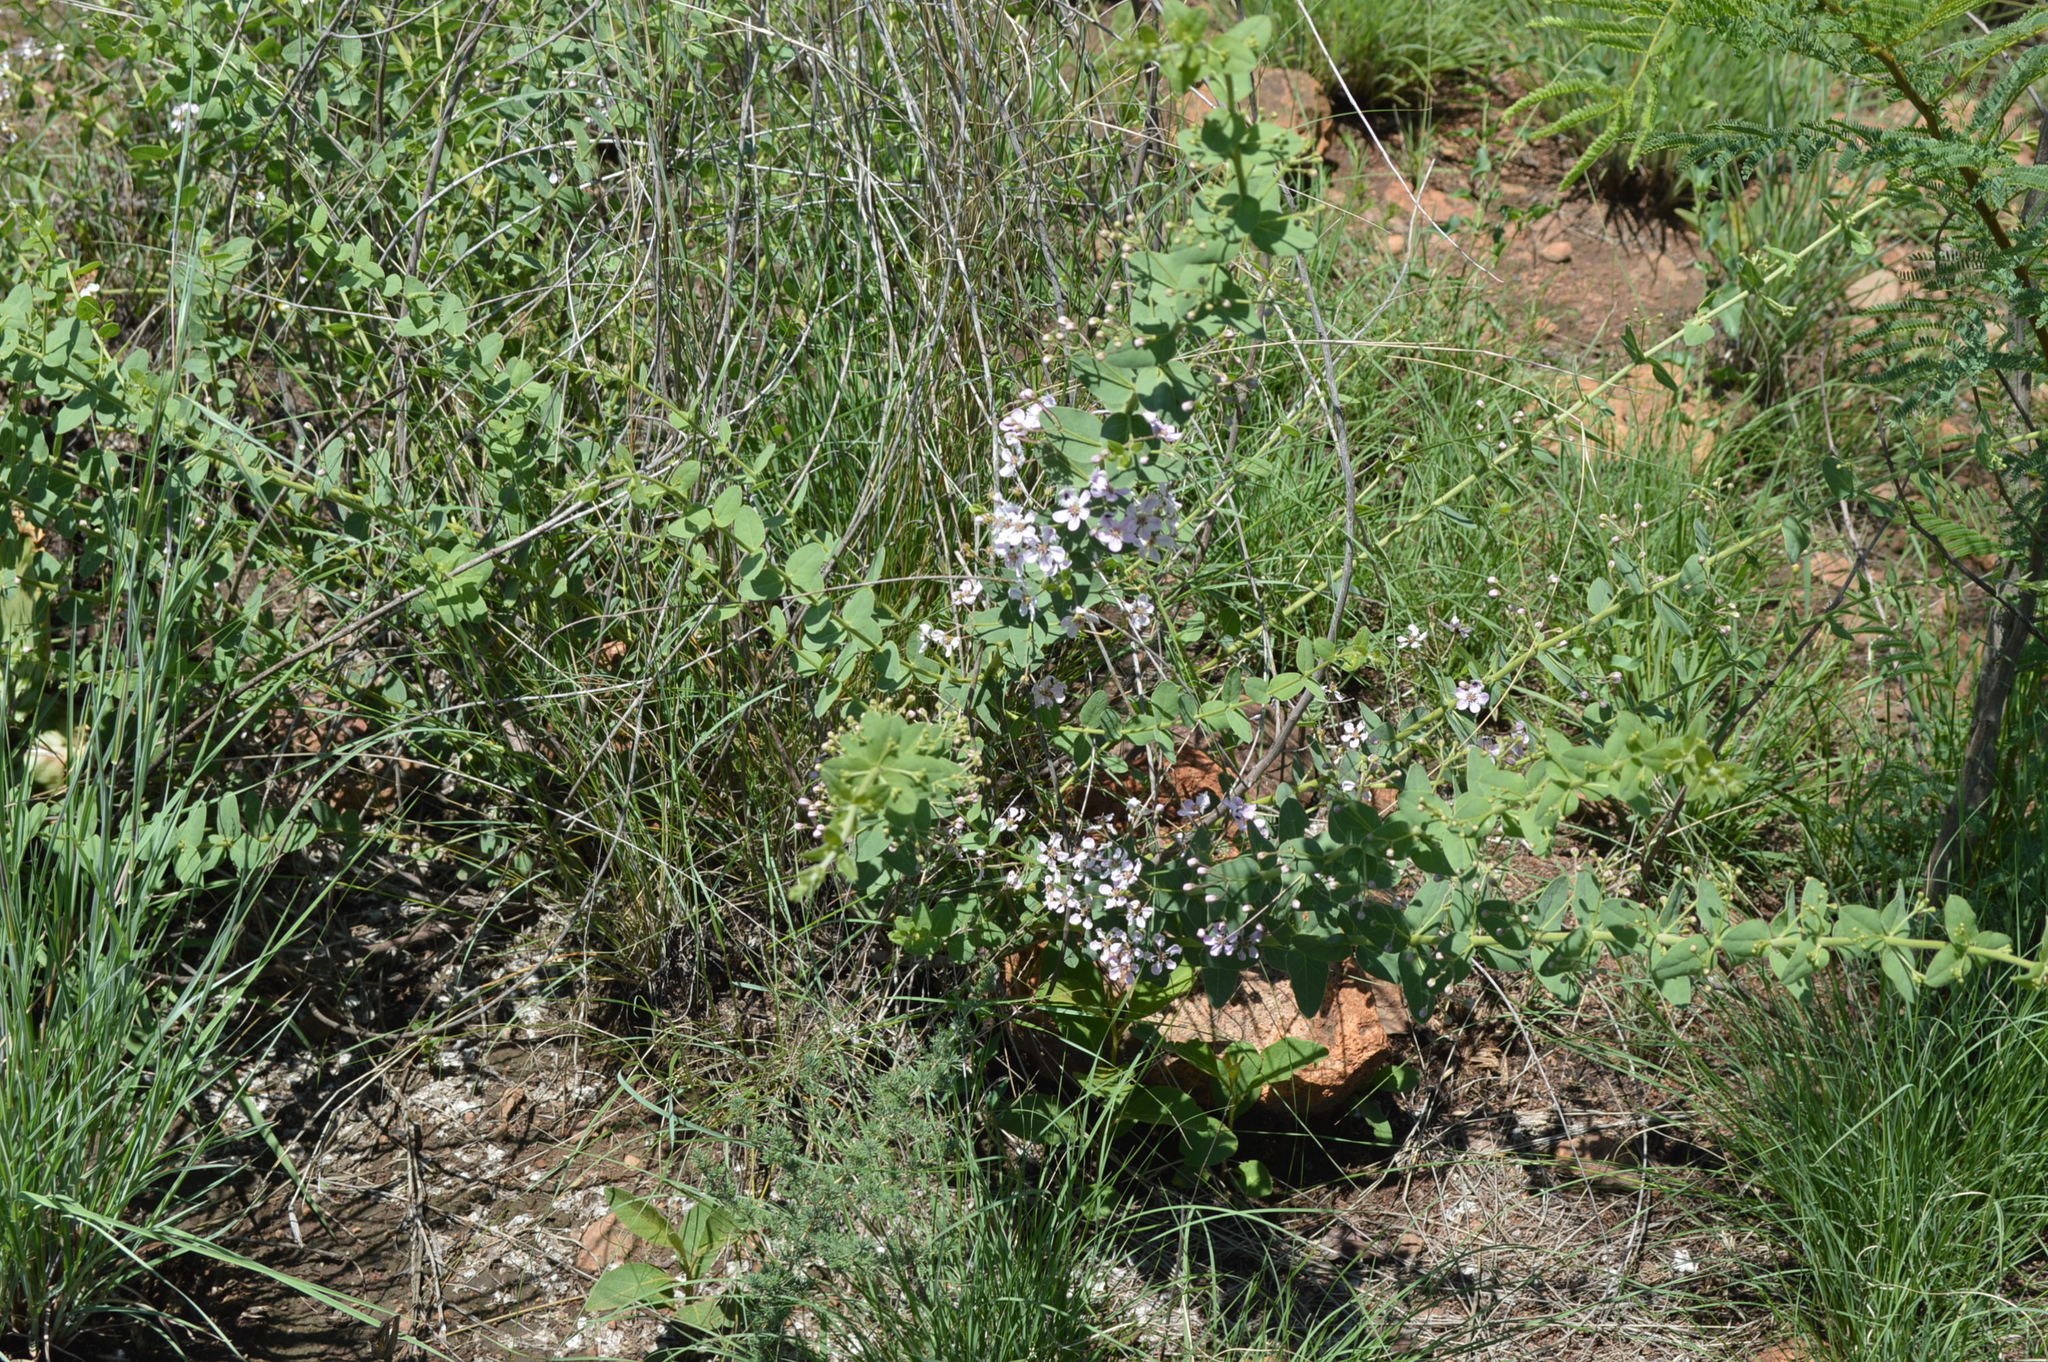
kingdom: Plantae
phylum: Tracheophyta
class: Magnoliopsida
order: Malpighiales
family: Malpighiaceae
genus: Triaspis
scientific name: Triaspis hypericoides
